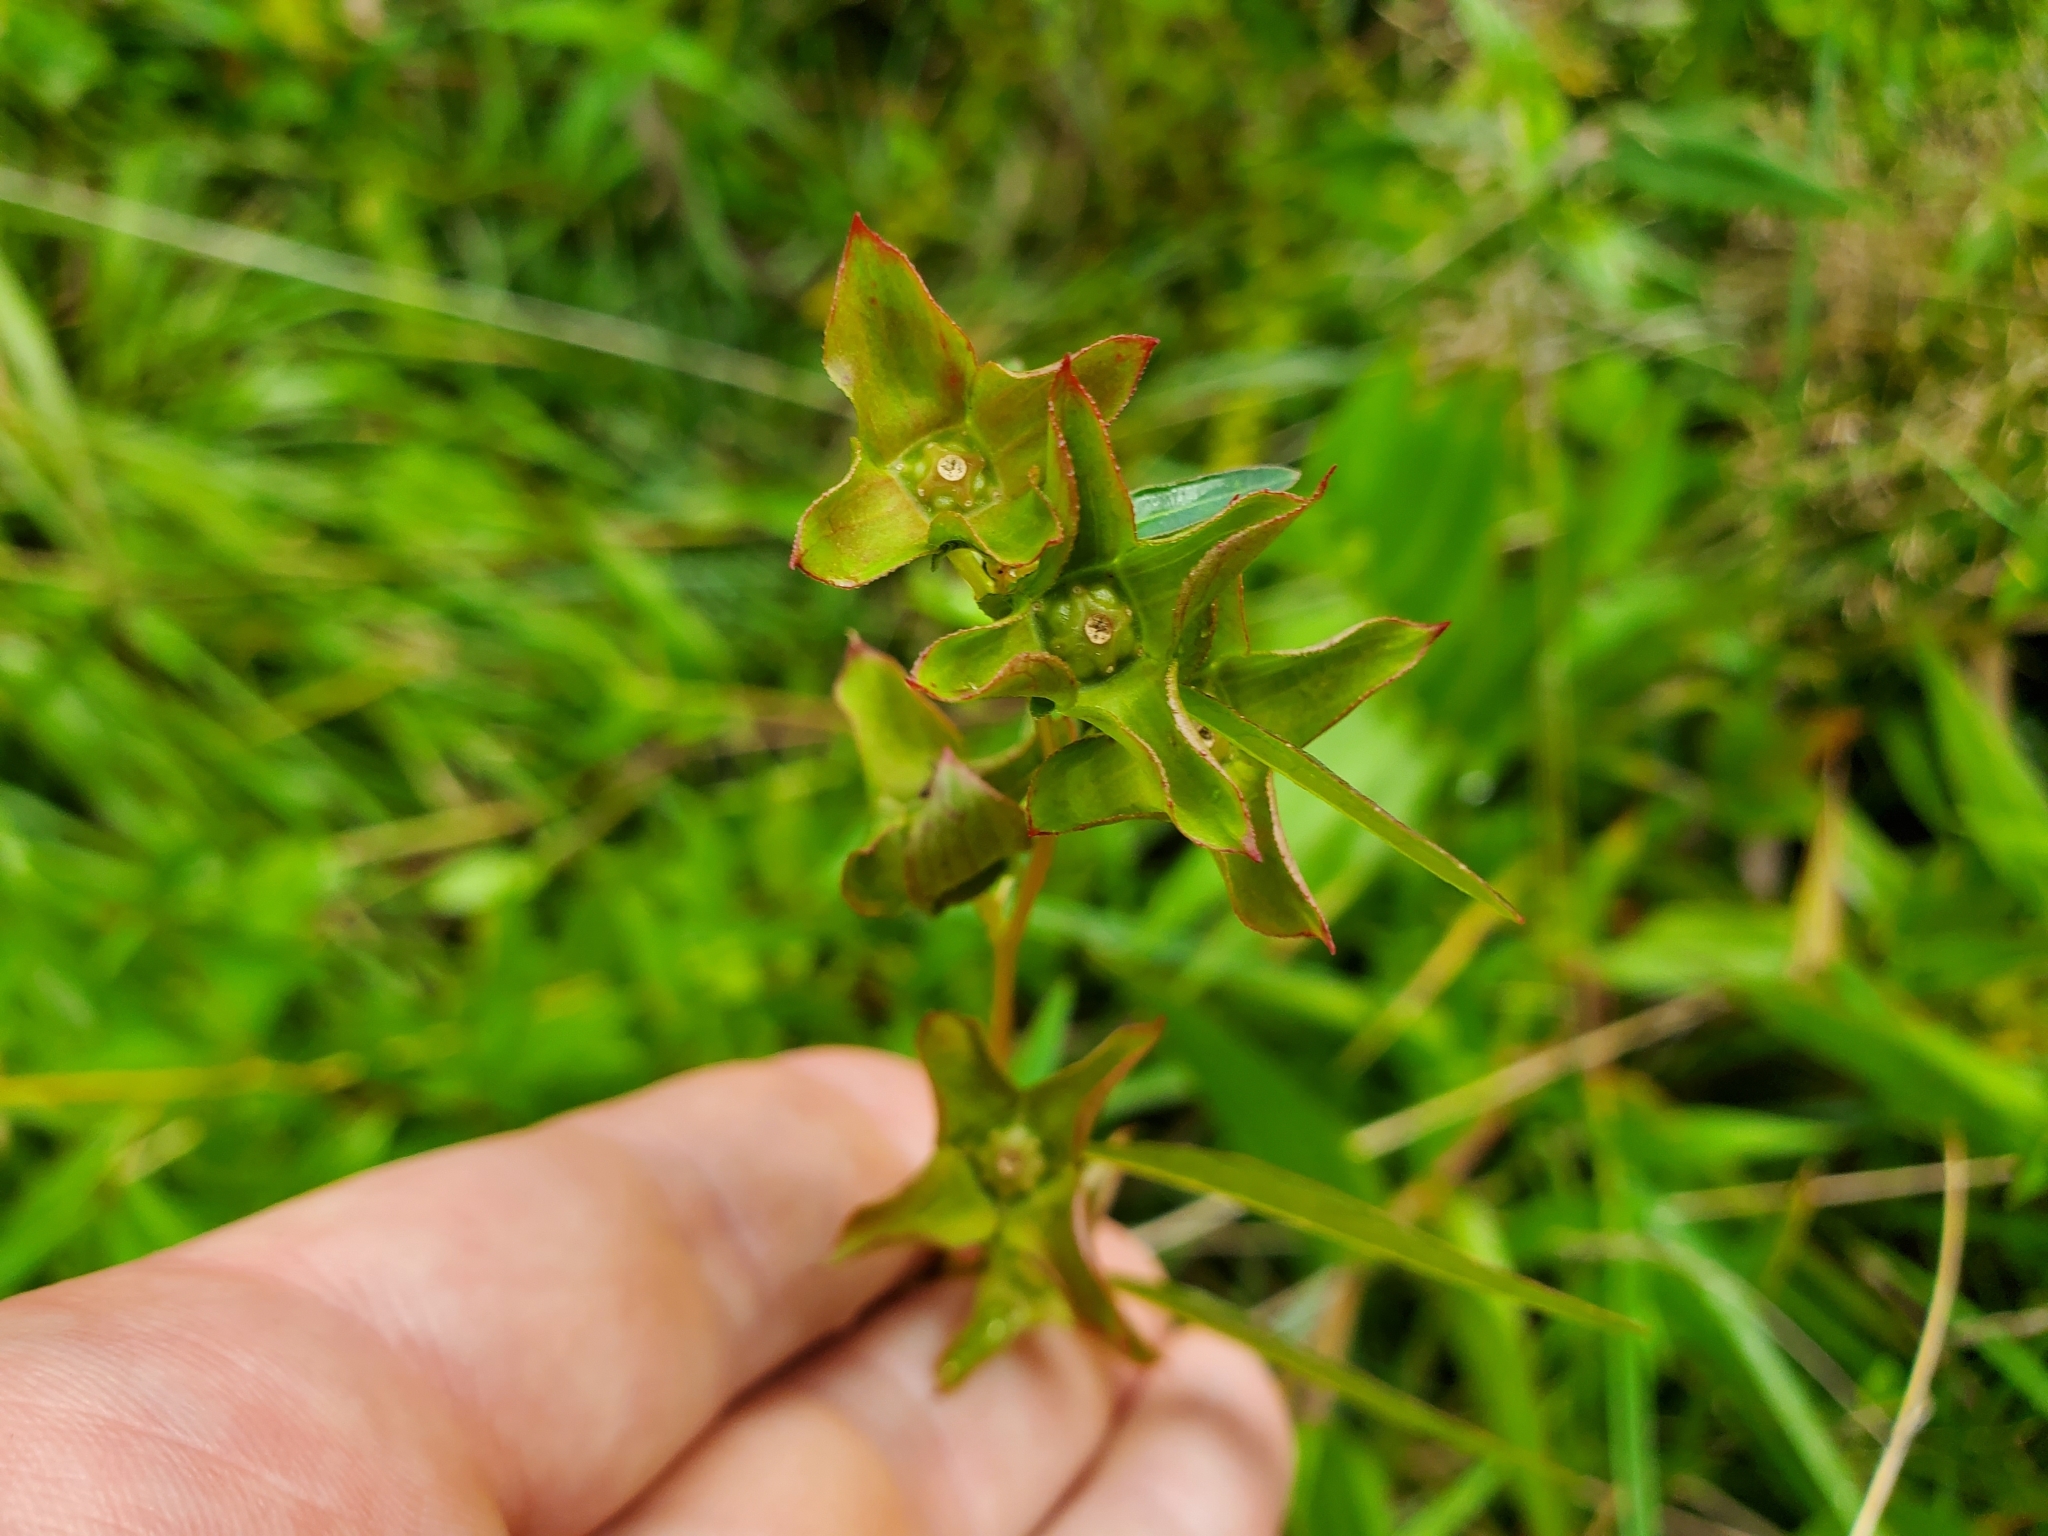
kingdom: Plantae
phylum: Tracheophyta
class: Magnoliopsida
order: Myrtales
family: Onagraceae
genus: Ludwigia
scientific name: Ludwigia alternifolia
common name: Rattlebox
